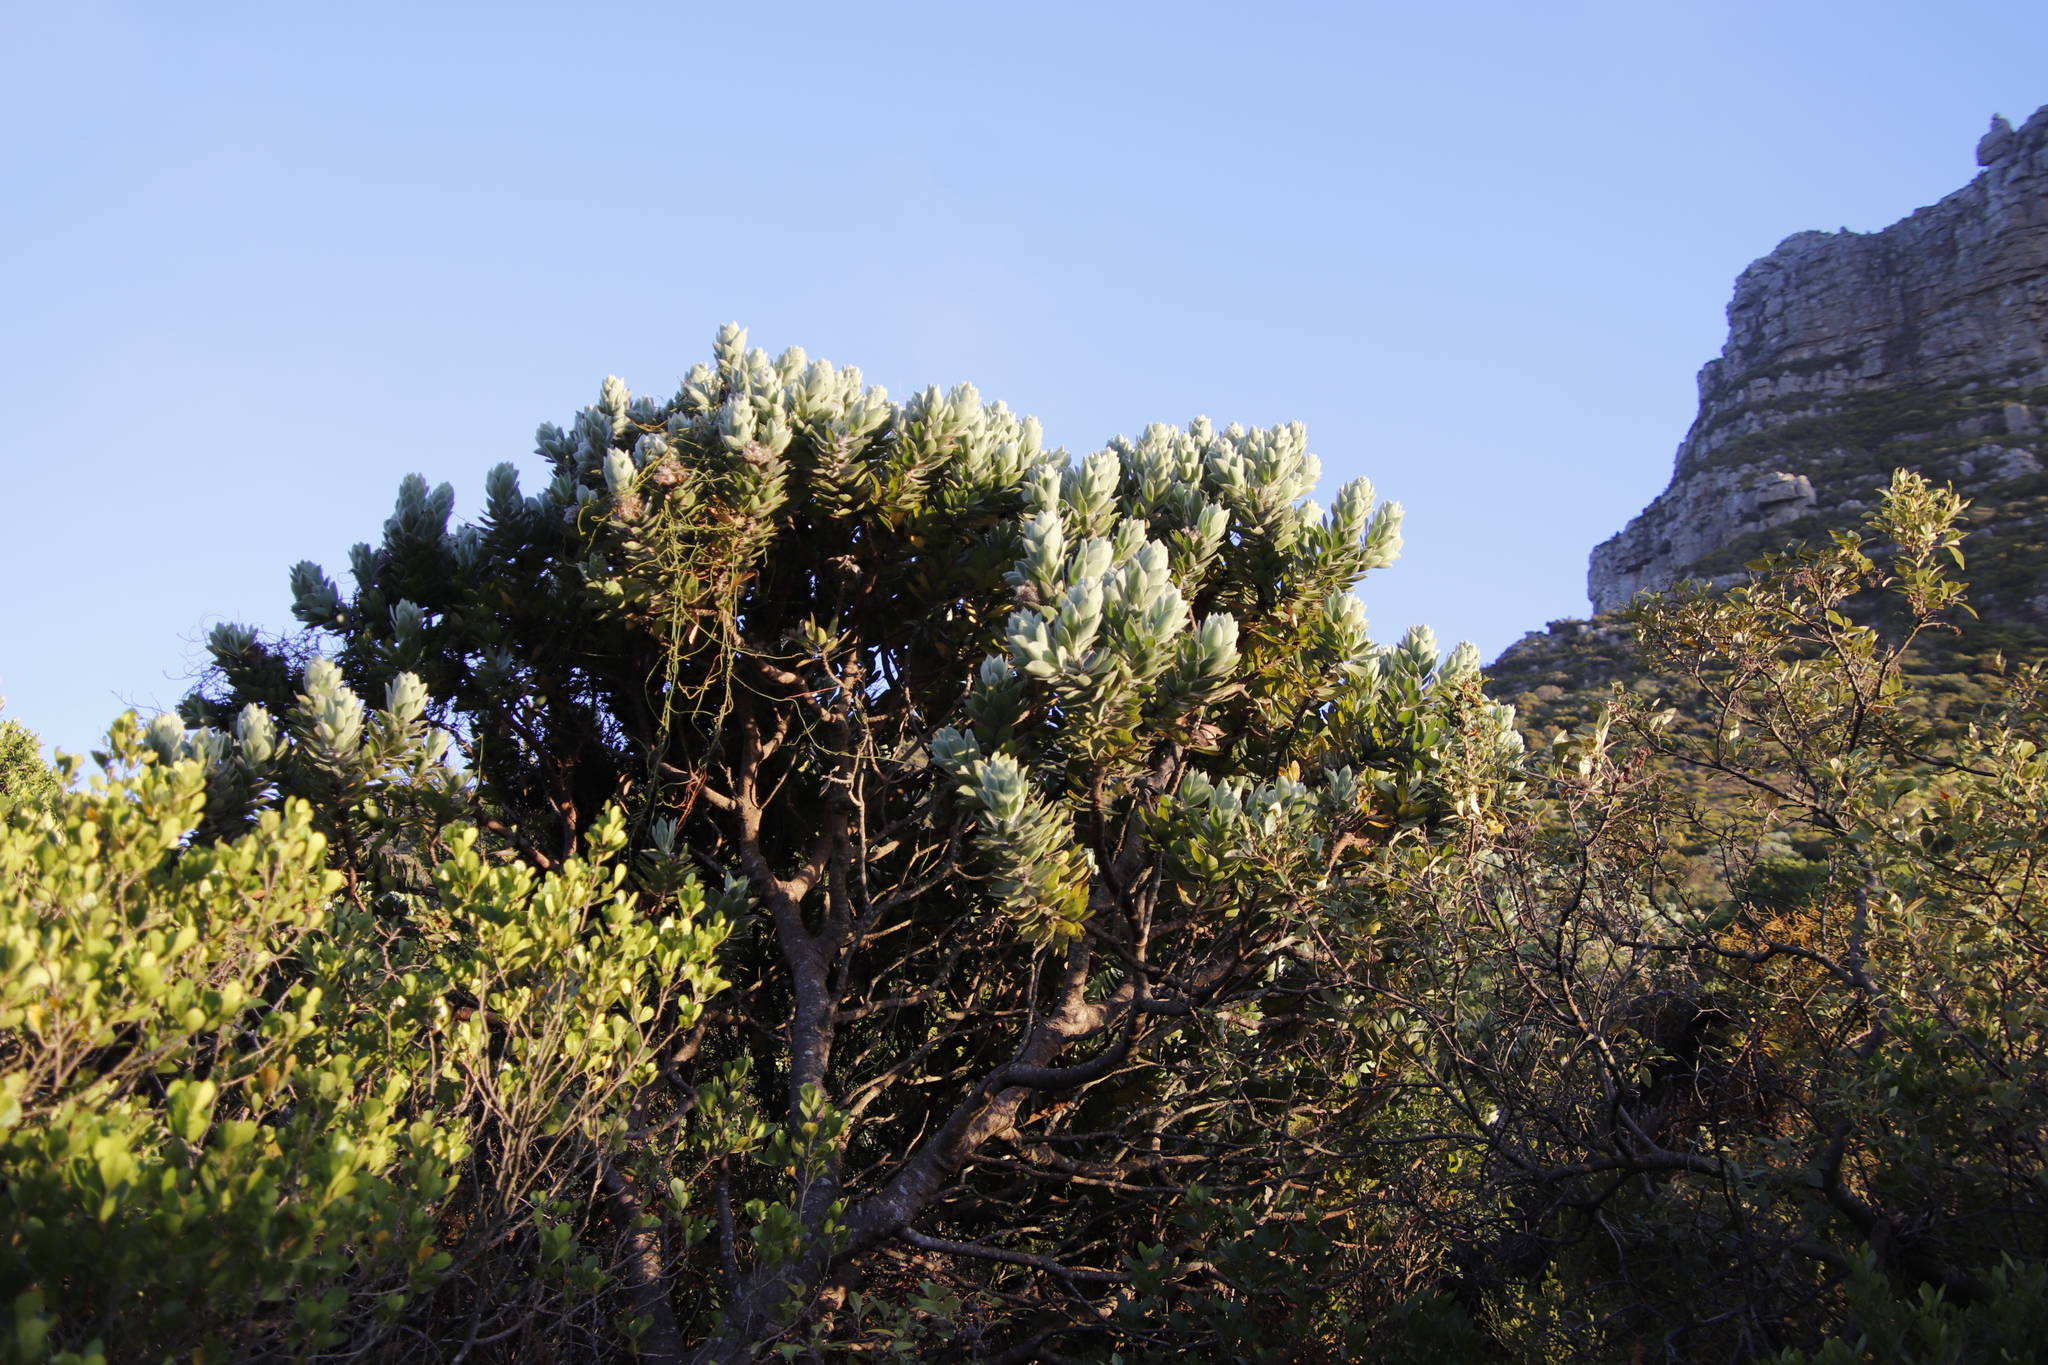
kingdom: Plantae
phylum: Tracheophyta
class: Magnoliopsida
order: Proteales
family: Proteaceae
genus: Leucospermum
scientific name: Leucospermum conocarpodendron
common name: Tree pincushion
